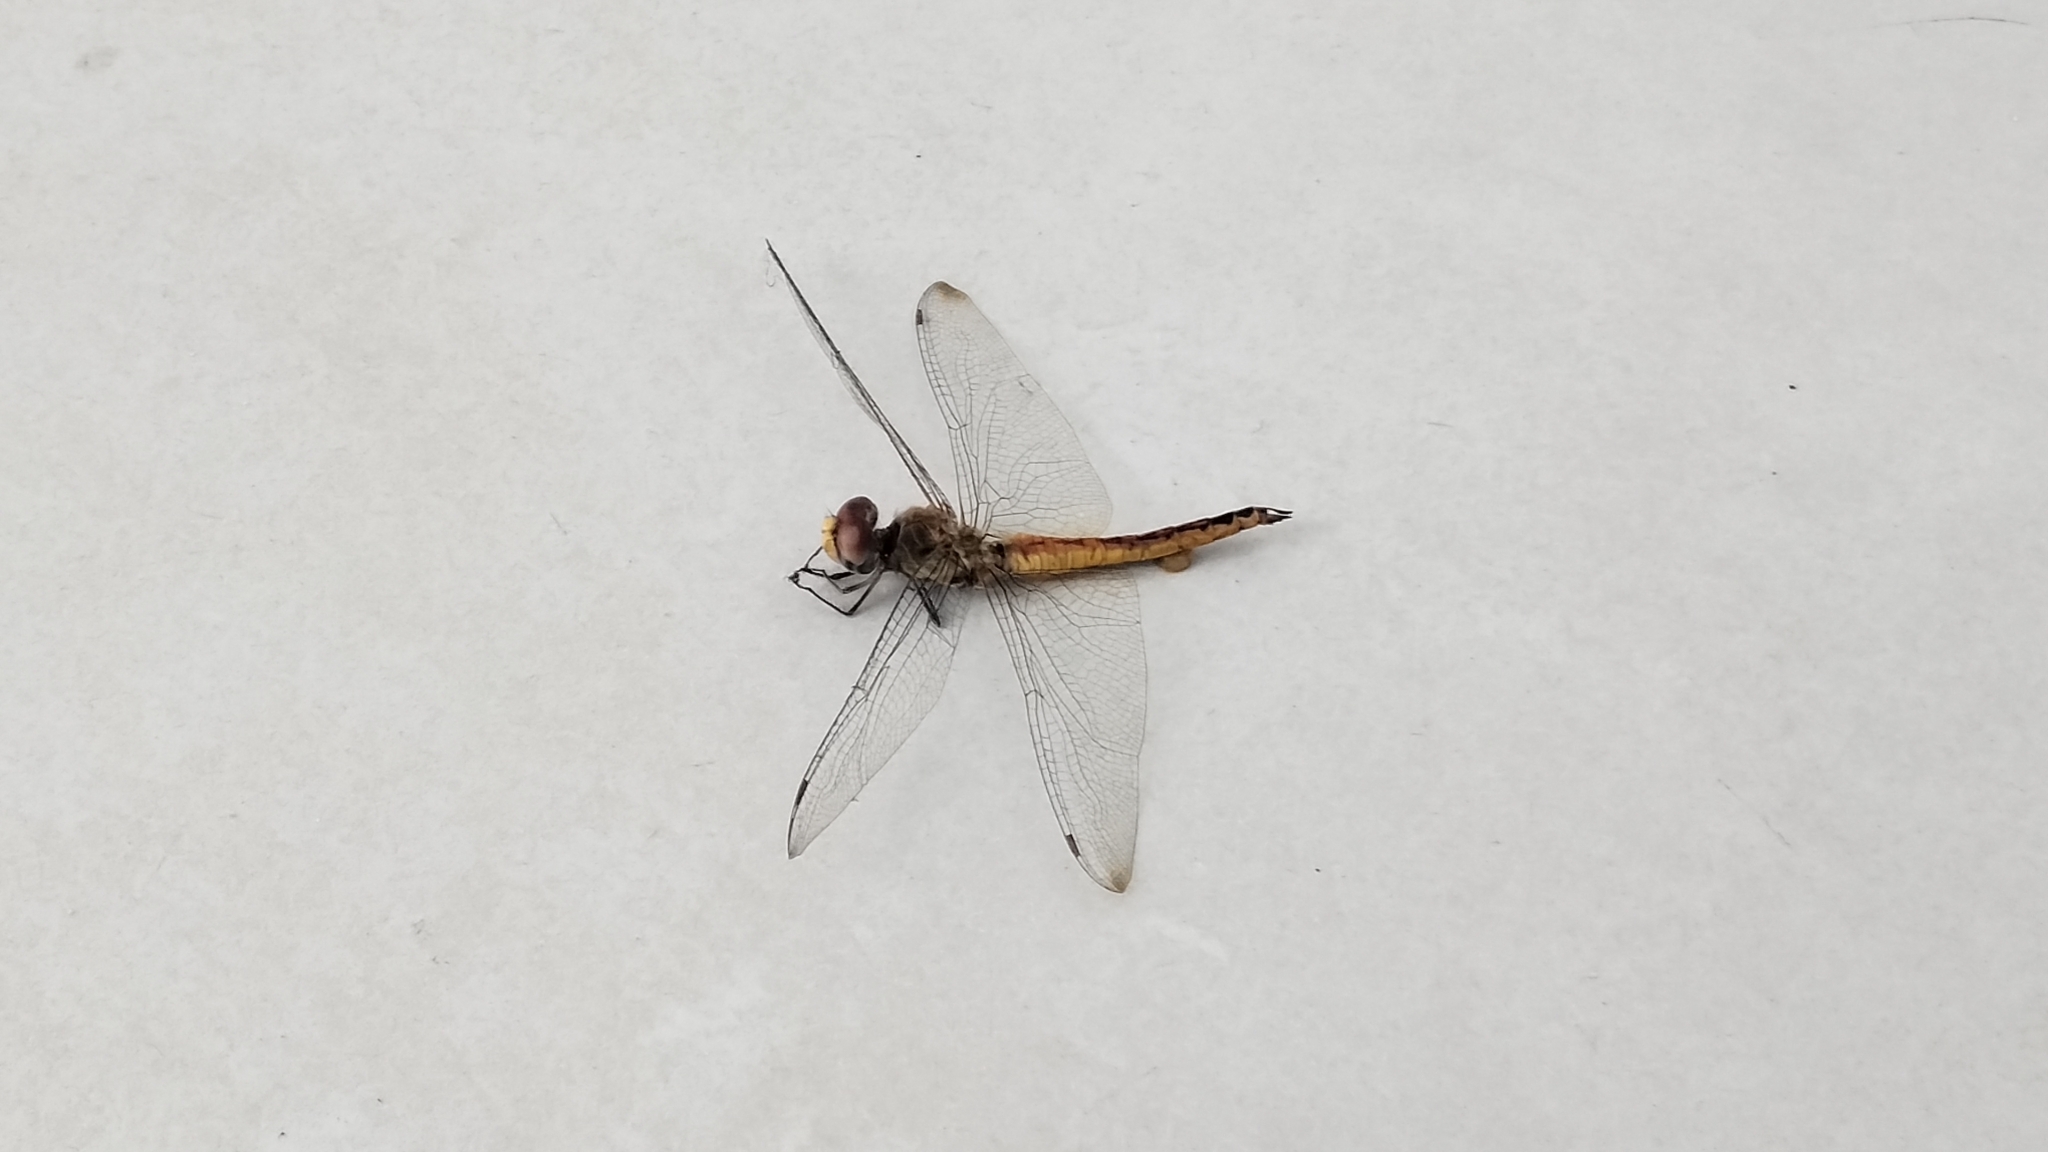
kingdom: Animalia
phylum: Arthropoda
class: Insecta
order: Odonata
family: Libellulidae
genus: Pantala
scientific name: Pantala flavescens
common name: Wandering glider
